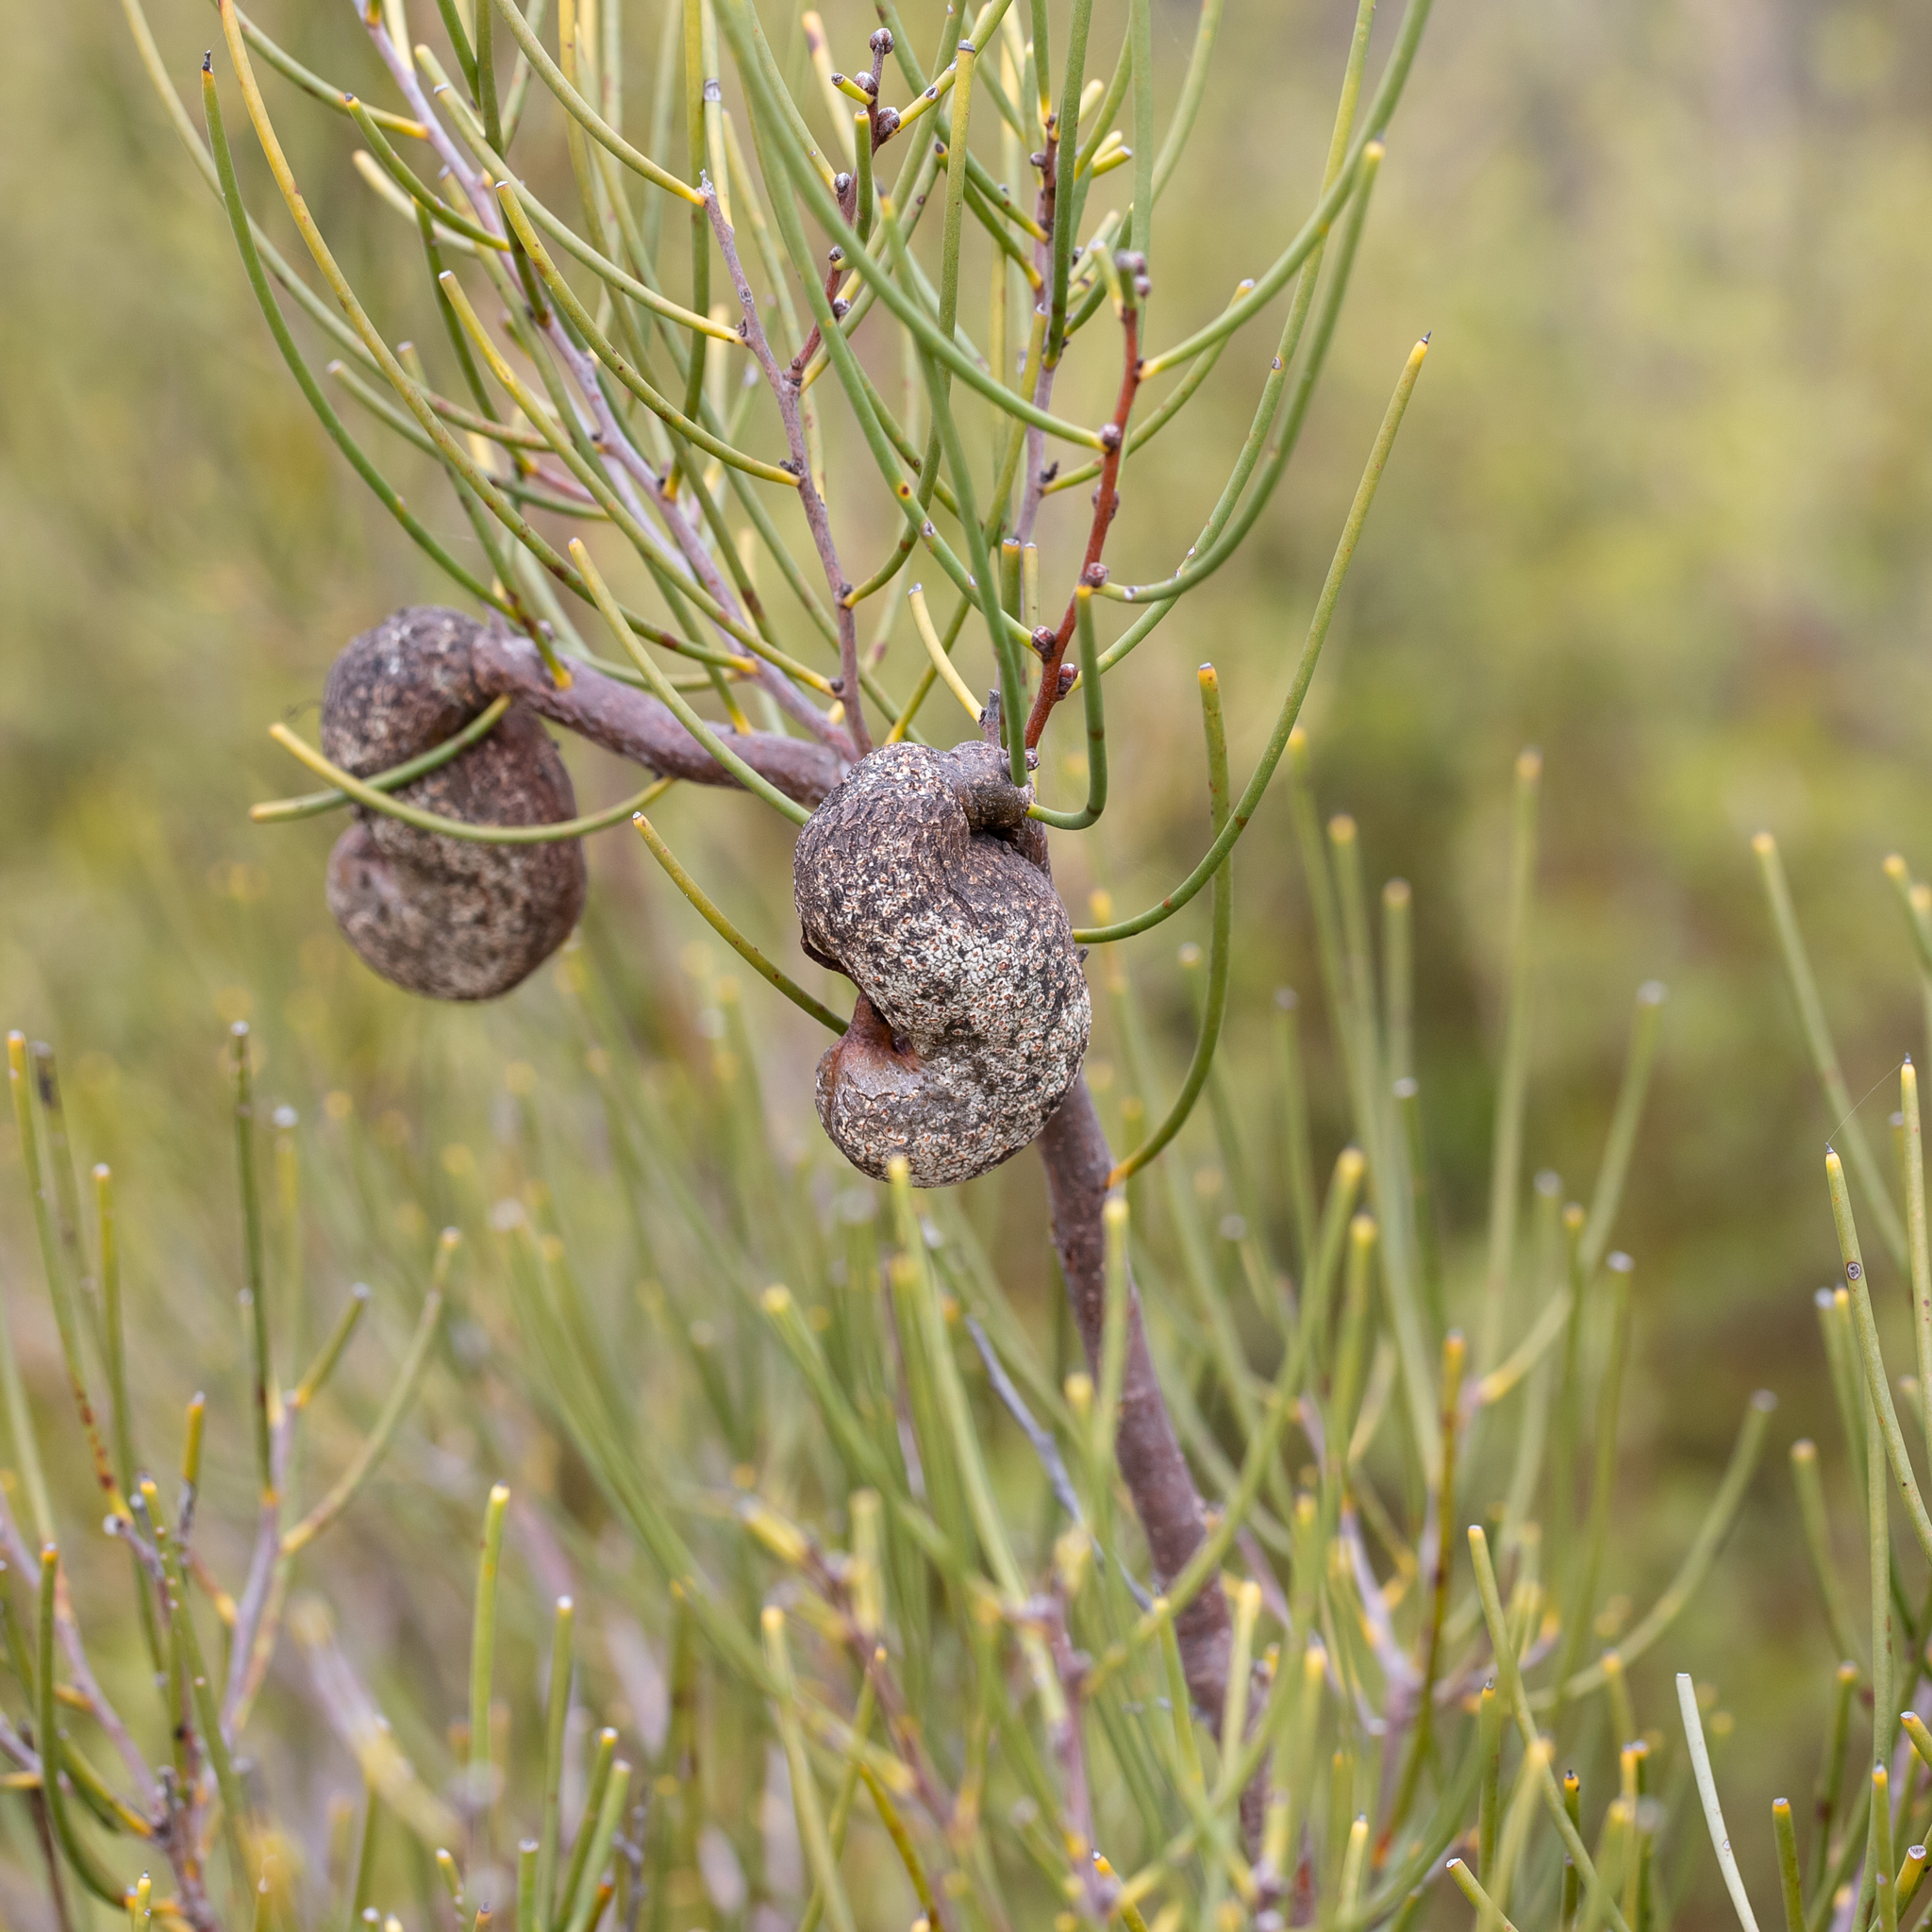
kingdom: Plantae
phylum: Tracheophyta
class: Magnoliopsida
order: Proteales
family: Proteaceae
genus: Hakea
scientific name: Hakea rostrata
